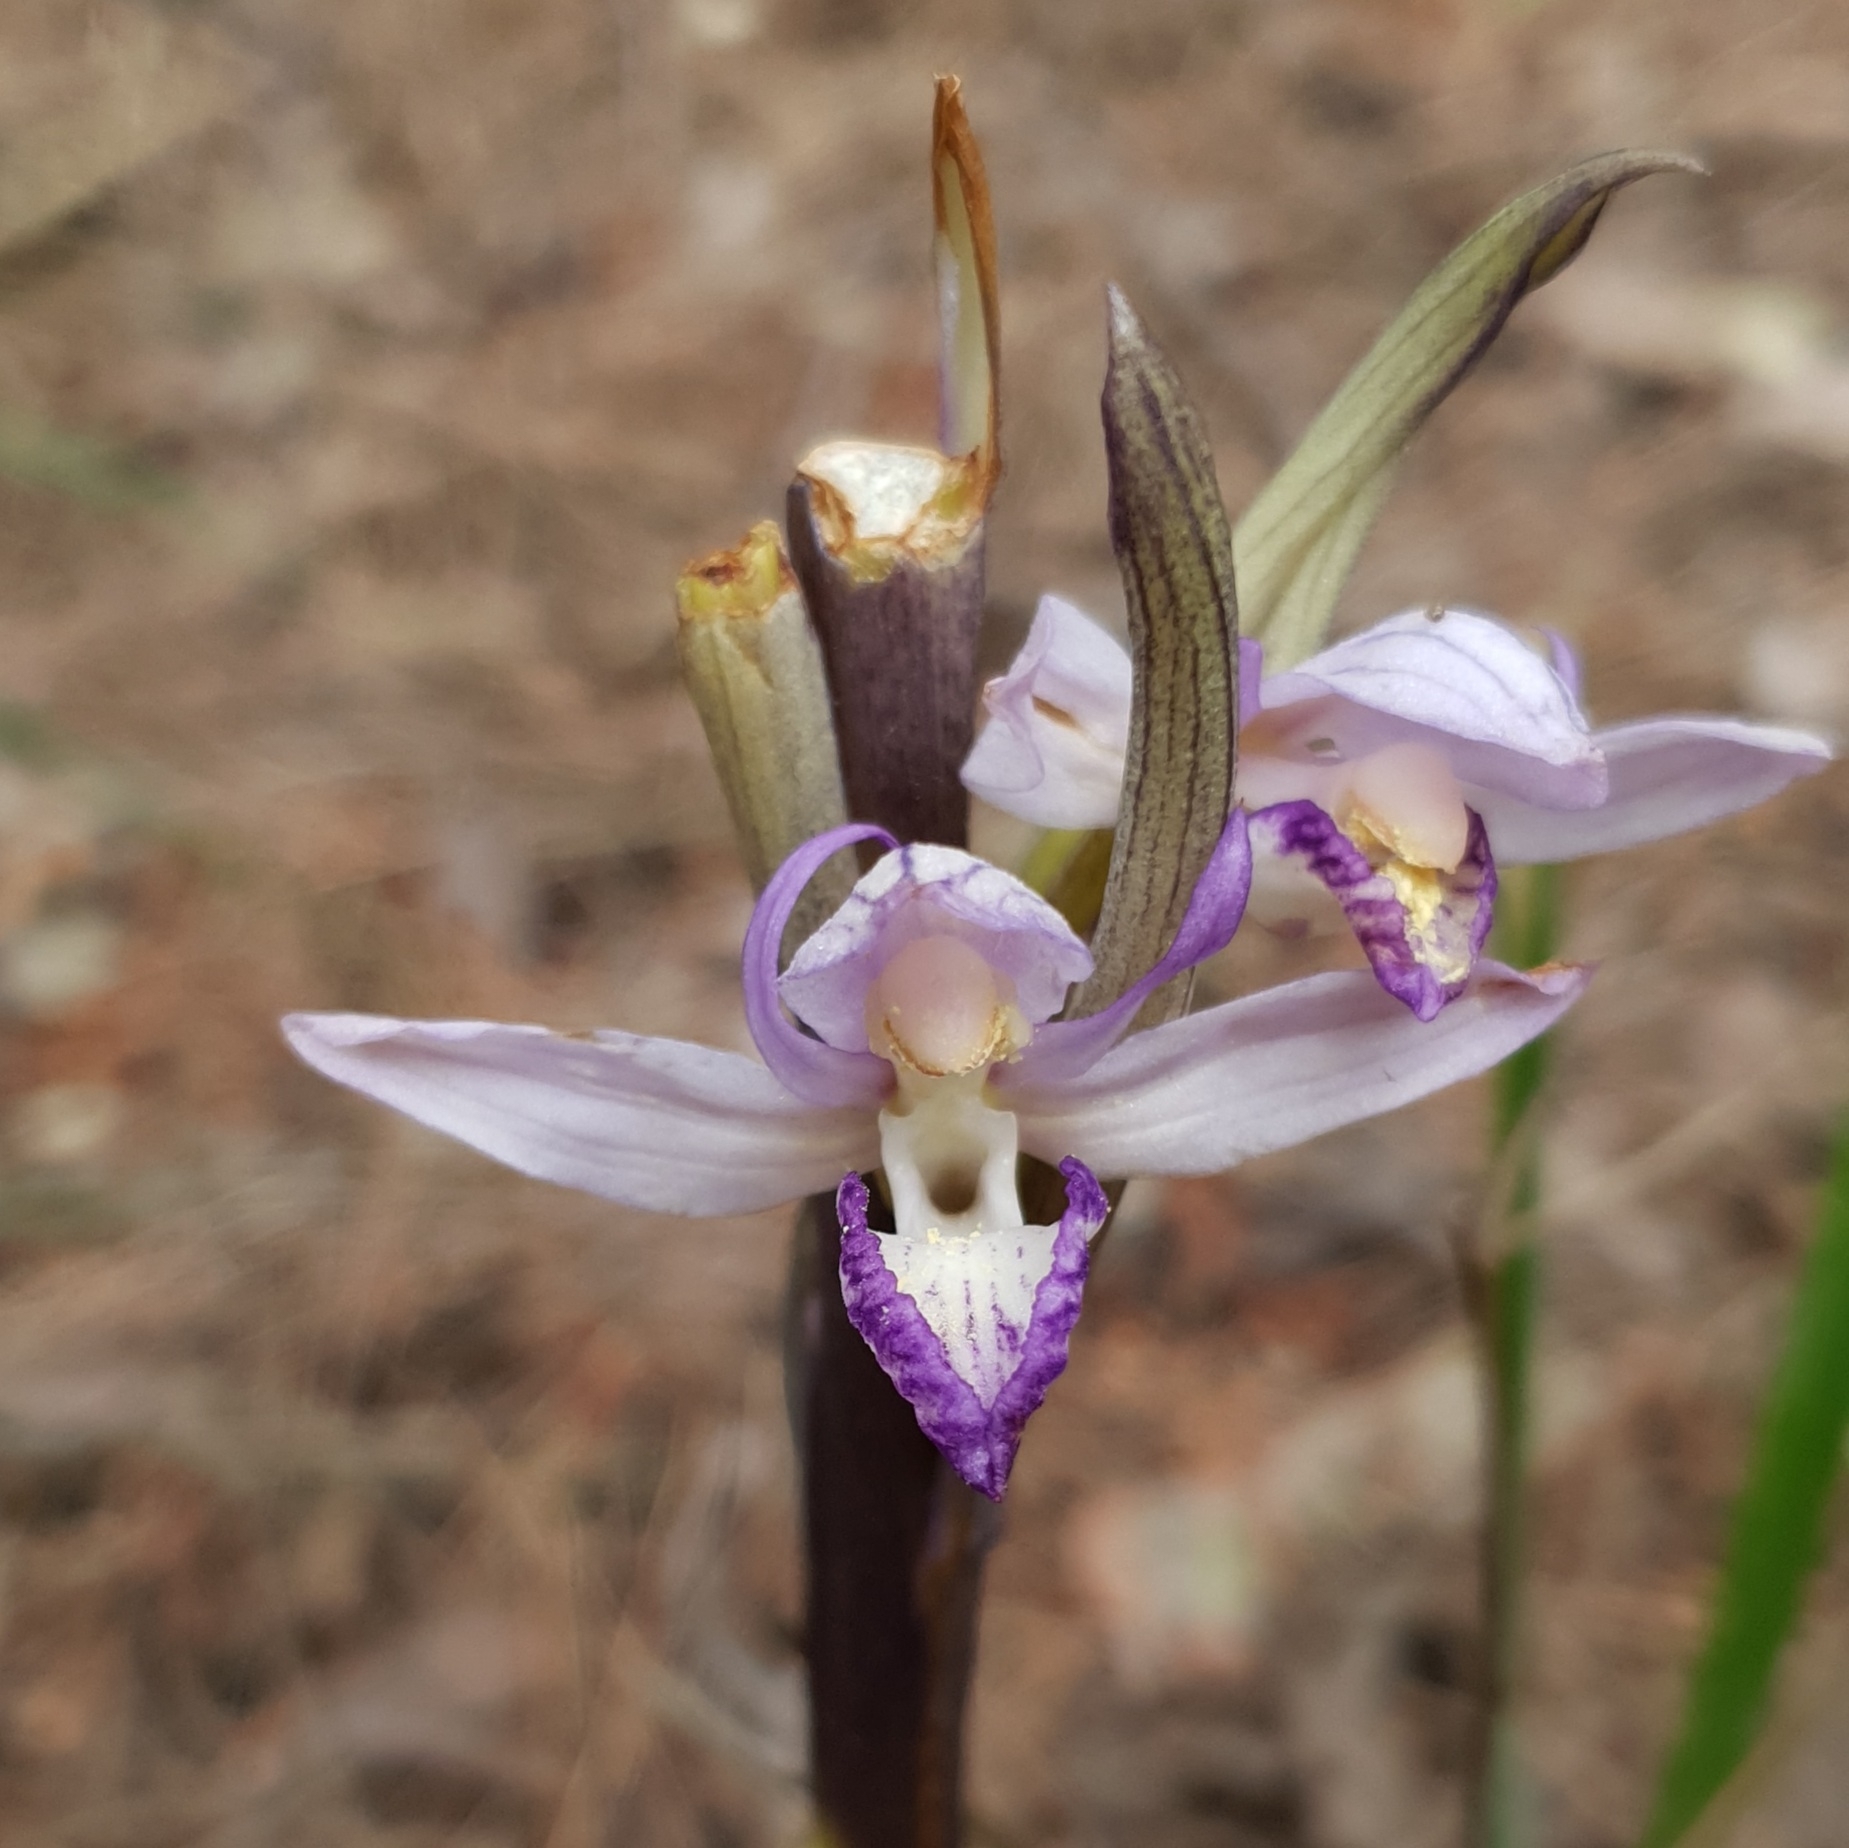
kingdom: Plantae
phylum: Tracheophyta
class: Liliopsida
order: Asparagales
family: Orchidaceae
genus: Limodorum
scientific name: Limodorum abortivum
